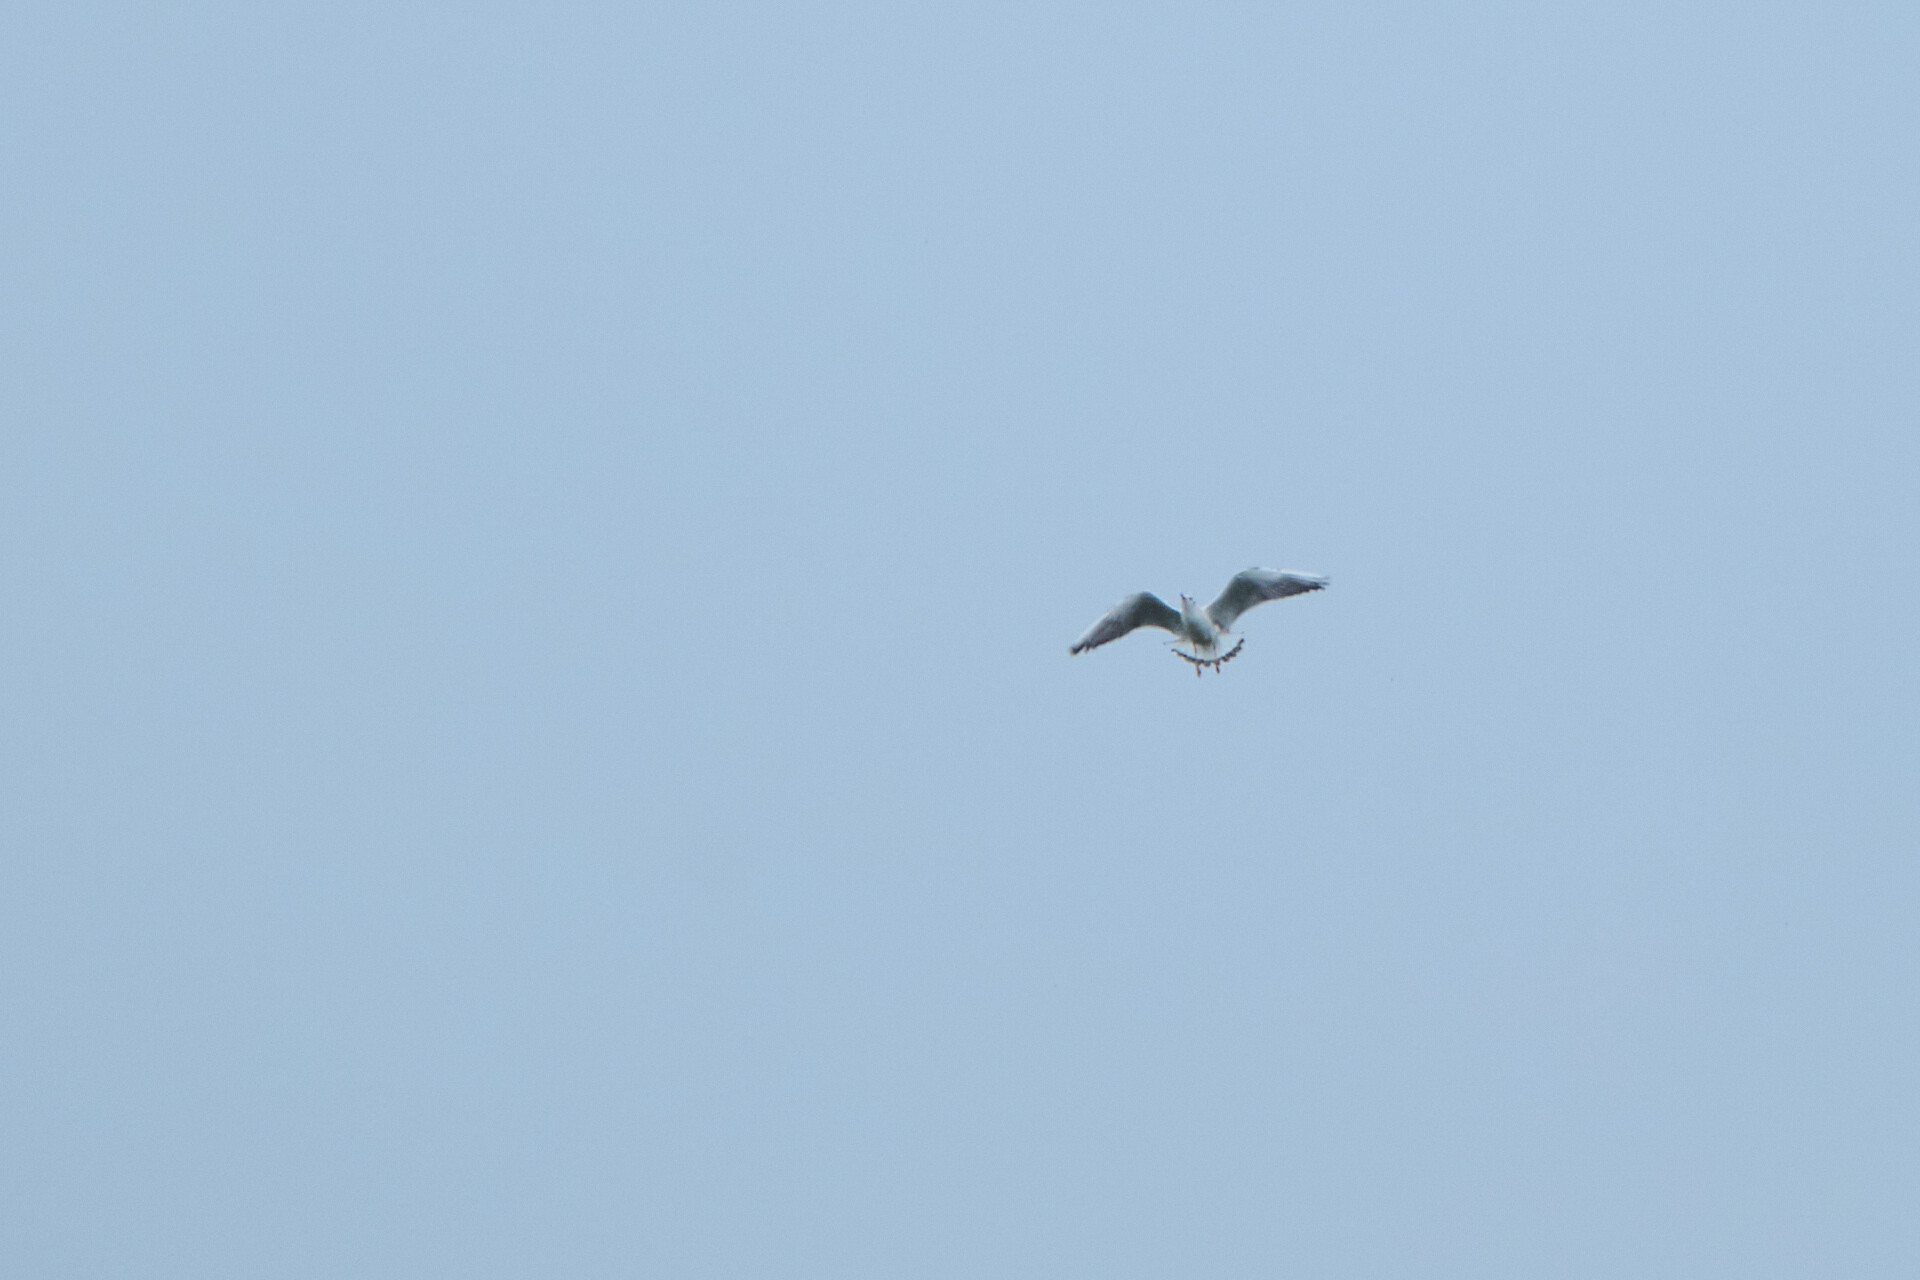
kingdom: Animalia
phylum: Chordata
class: Aves
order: Charadriiformes
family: Laridae
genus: Chroicocephalus
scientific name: Chroicocephalus ridibundus
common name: Black-headed gull
